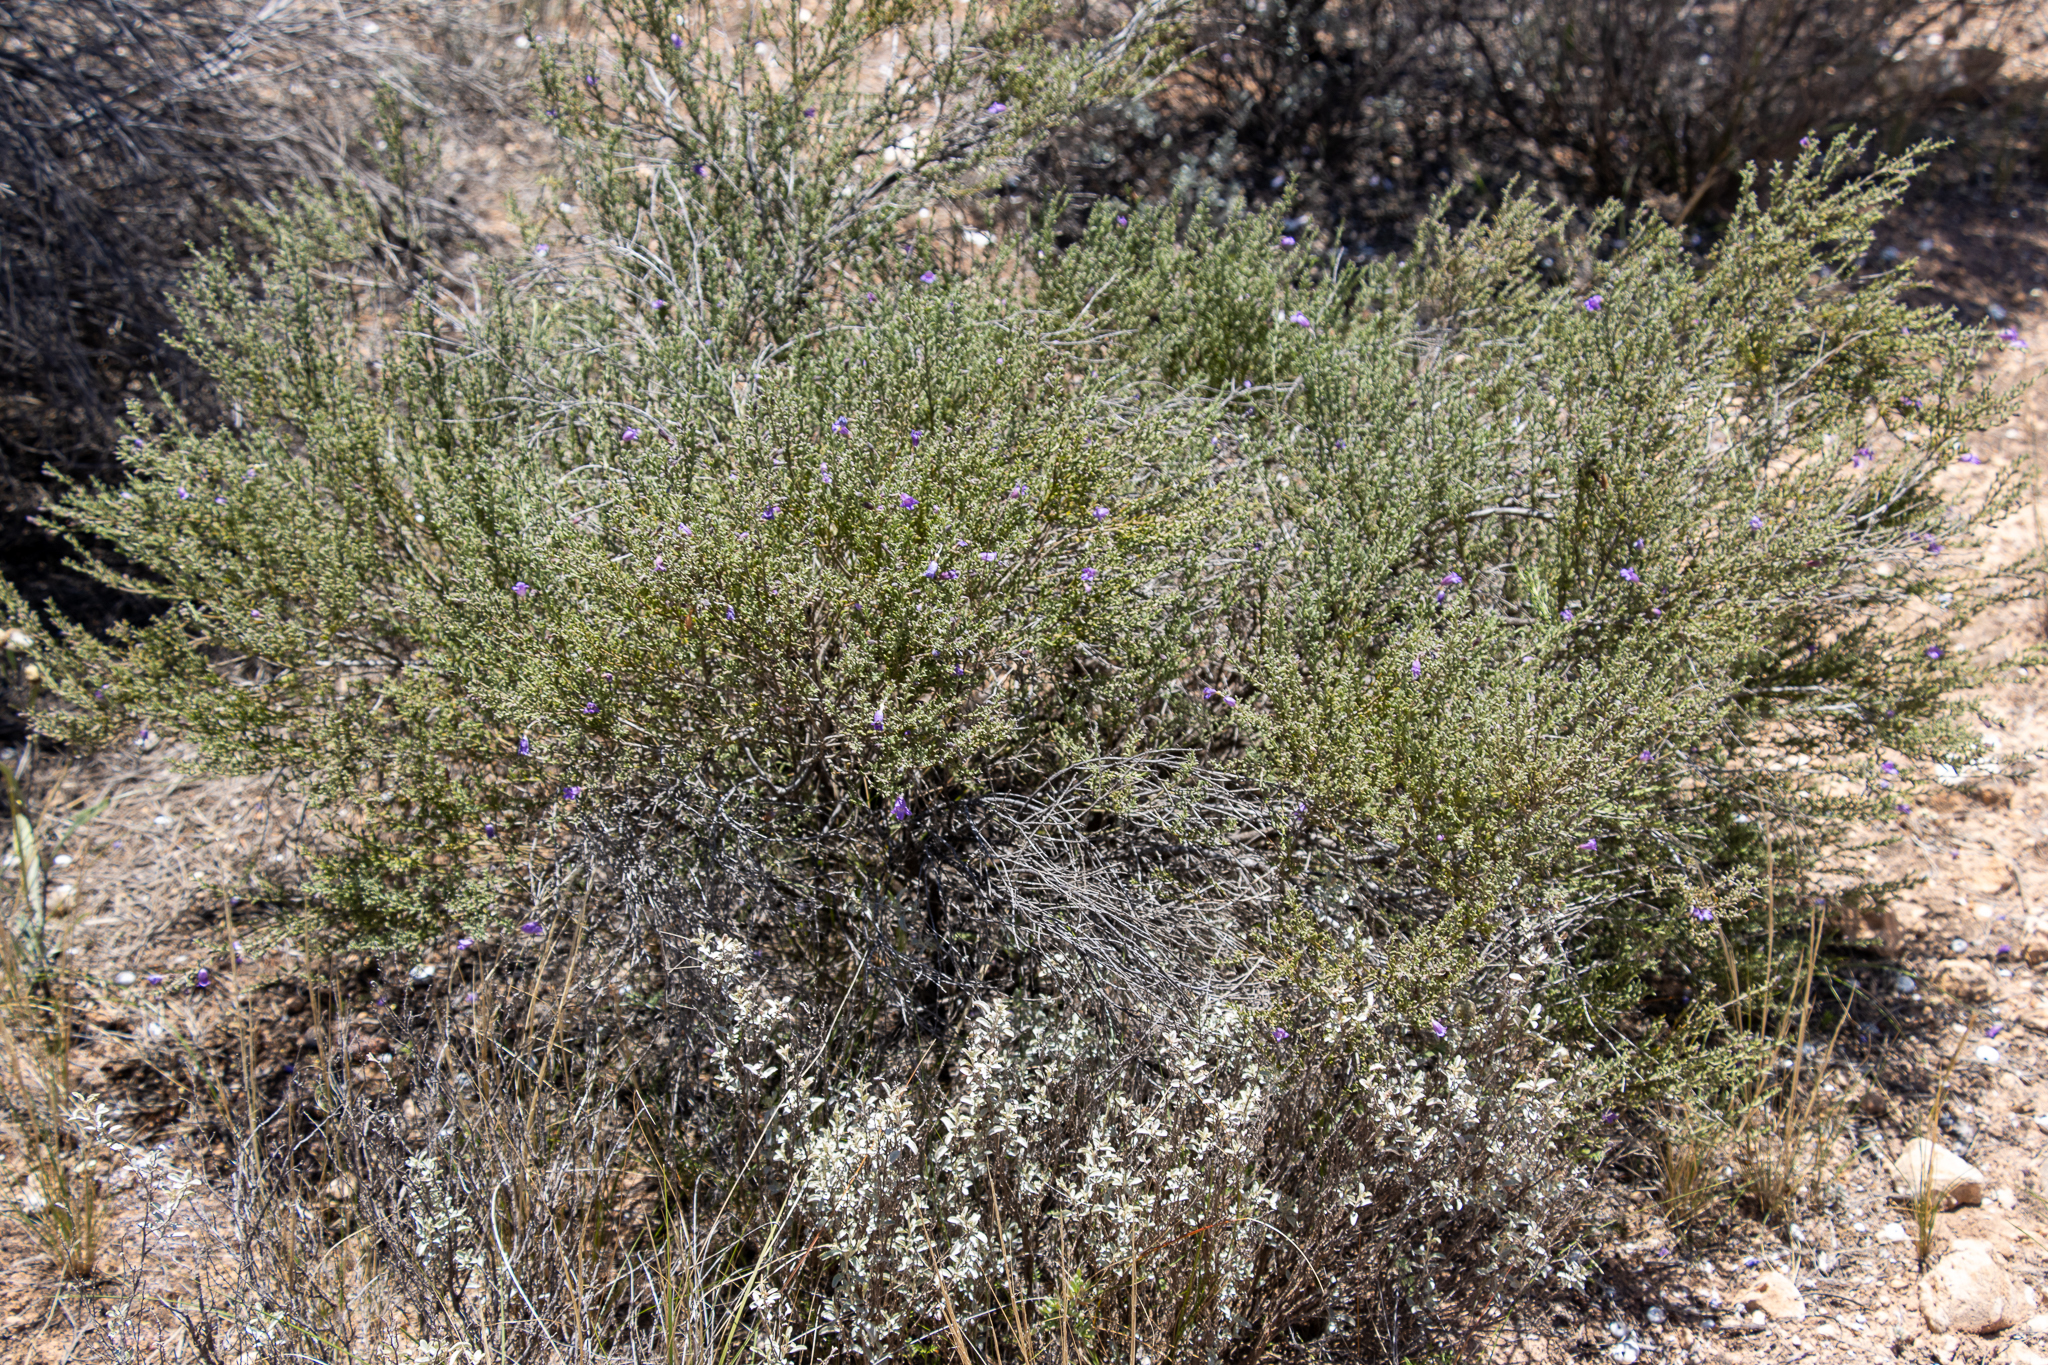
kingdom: Plantae
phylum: Tracheophyta
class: Magnoliopsida
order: Lamiales
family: Scrophulariaceae
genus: Eremophila
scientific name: Eremophila praecox
